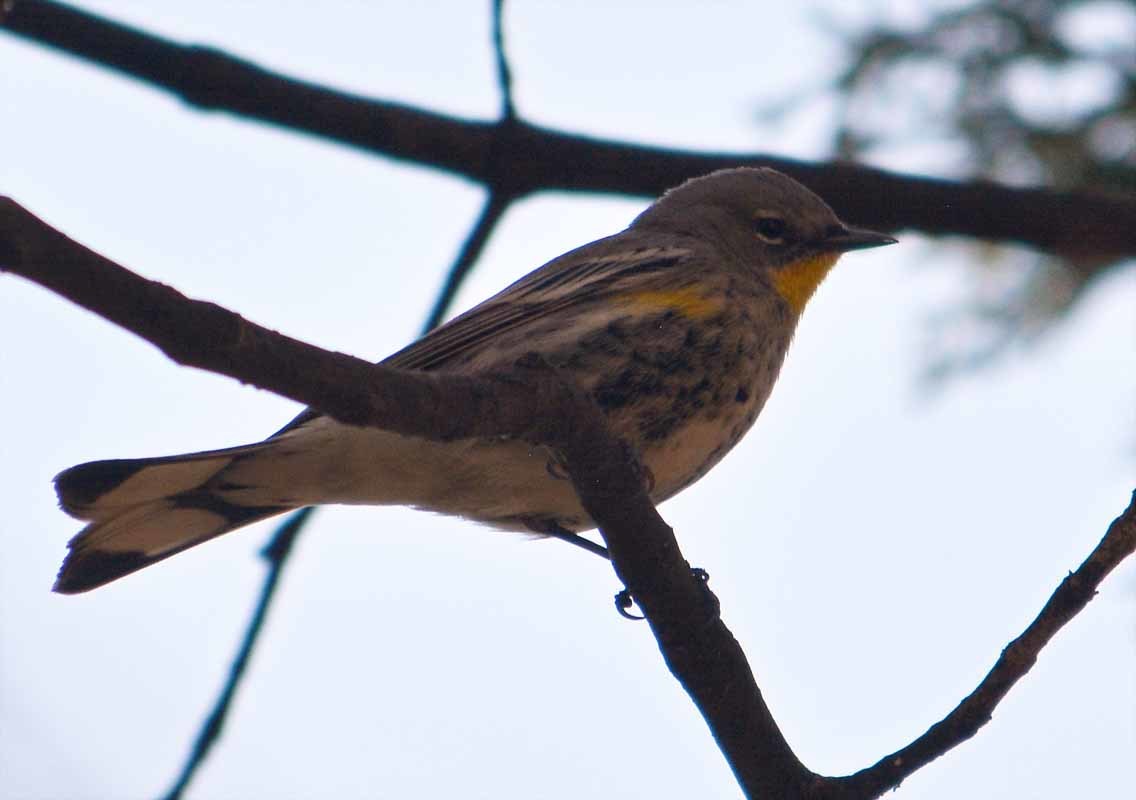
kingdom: Animalia
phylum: Chordata
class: Aves
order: Passeriformes
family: Parulidae
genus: Setophaga
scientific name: Setophaga coronata
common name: Myrtle warbler
